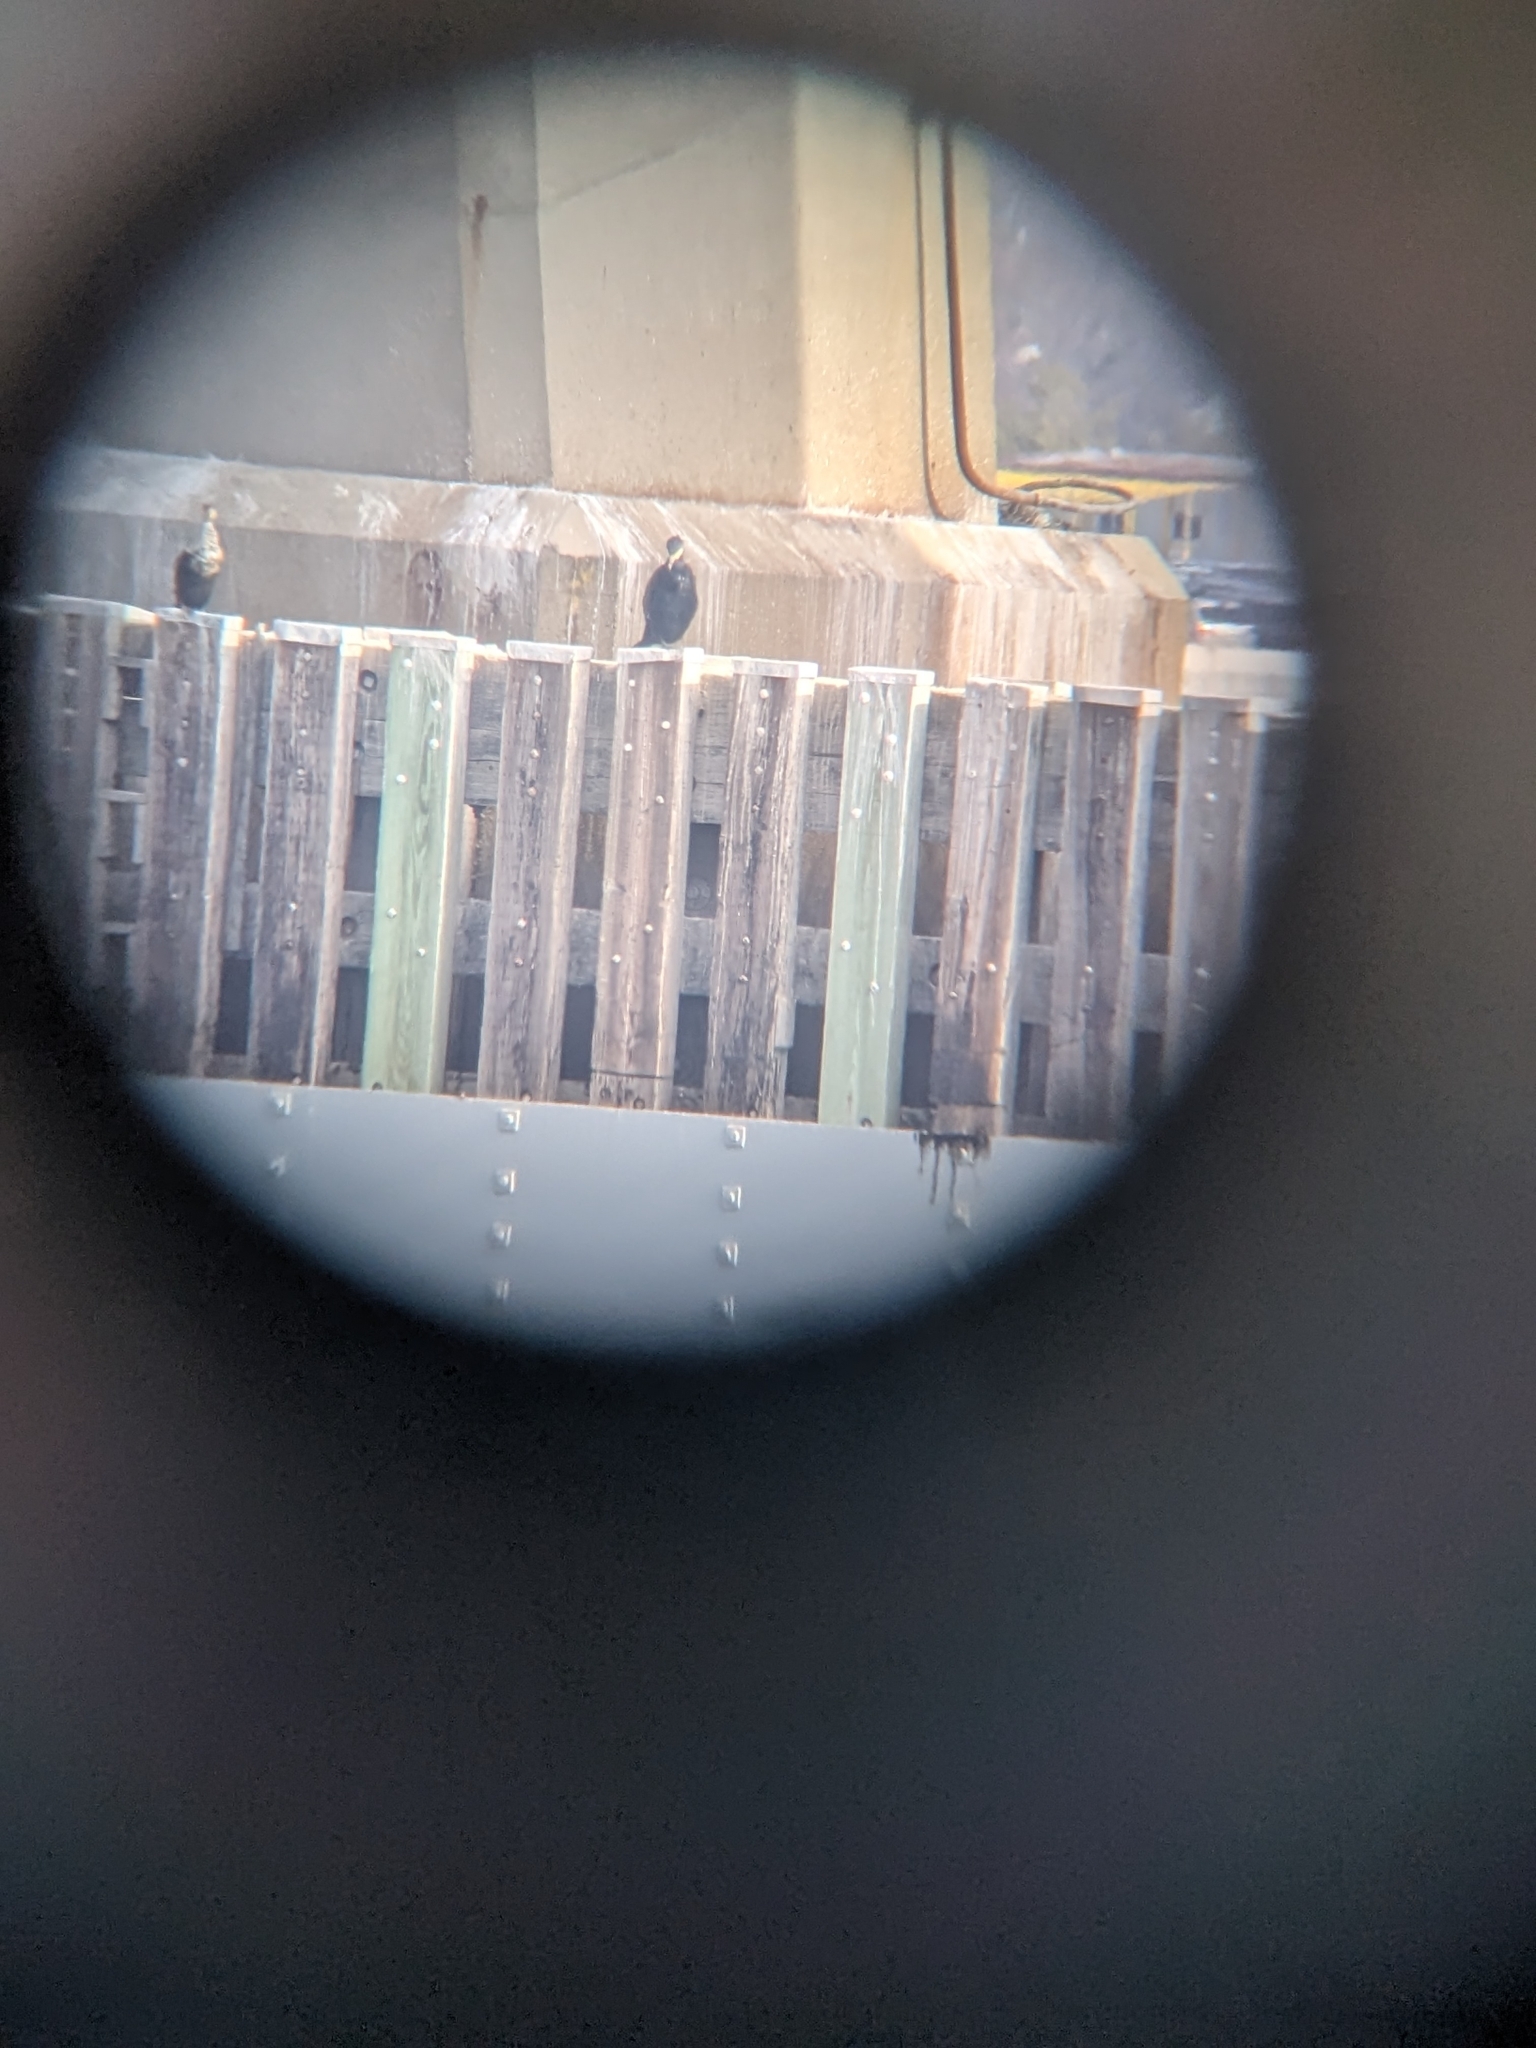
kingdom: Animalia
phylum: Chordata
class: Aves
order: Suliformes
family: Phalacrocoracidae
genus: Phalacrocorax
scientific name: Phalacrocorax carbo
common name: Great cormorant
